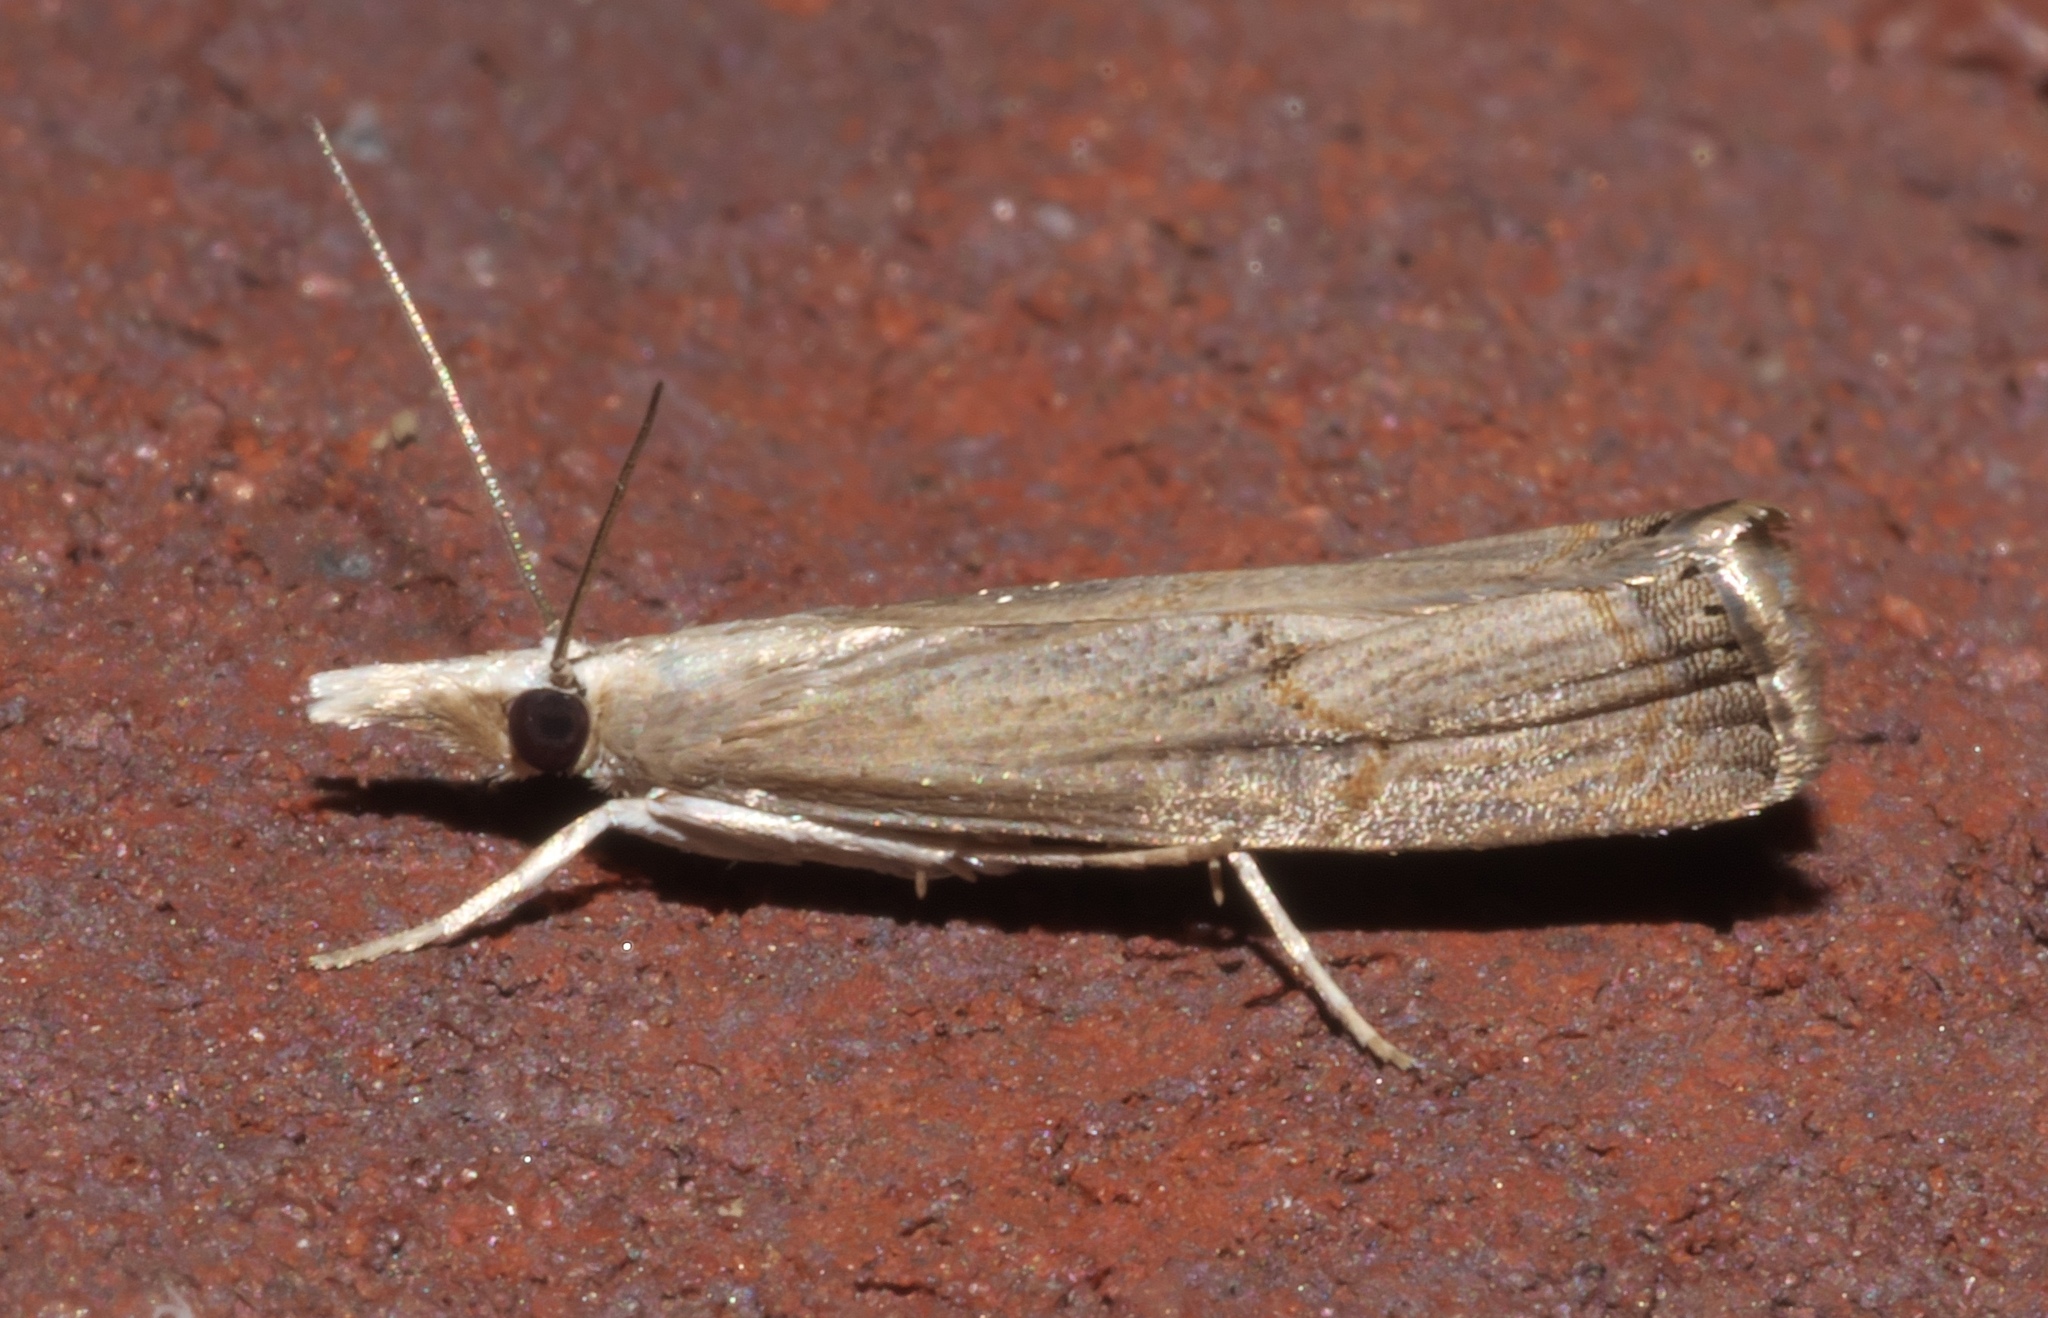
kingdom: Animalia
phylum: Arthropoda
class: Insecta
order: Lepidoptera
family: Crambidae
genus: Parapediasia
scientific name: Parapediasia teterellus
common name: Bluegrass webworm moth
